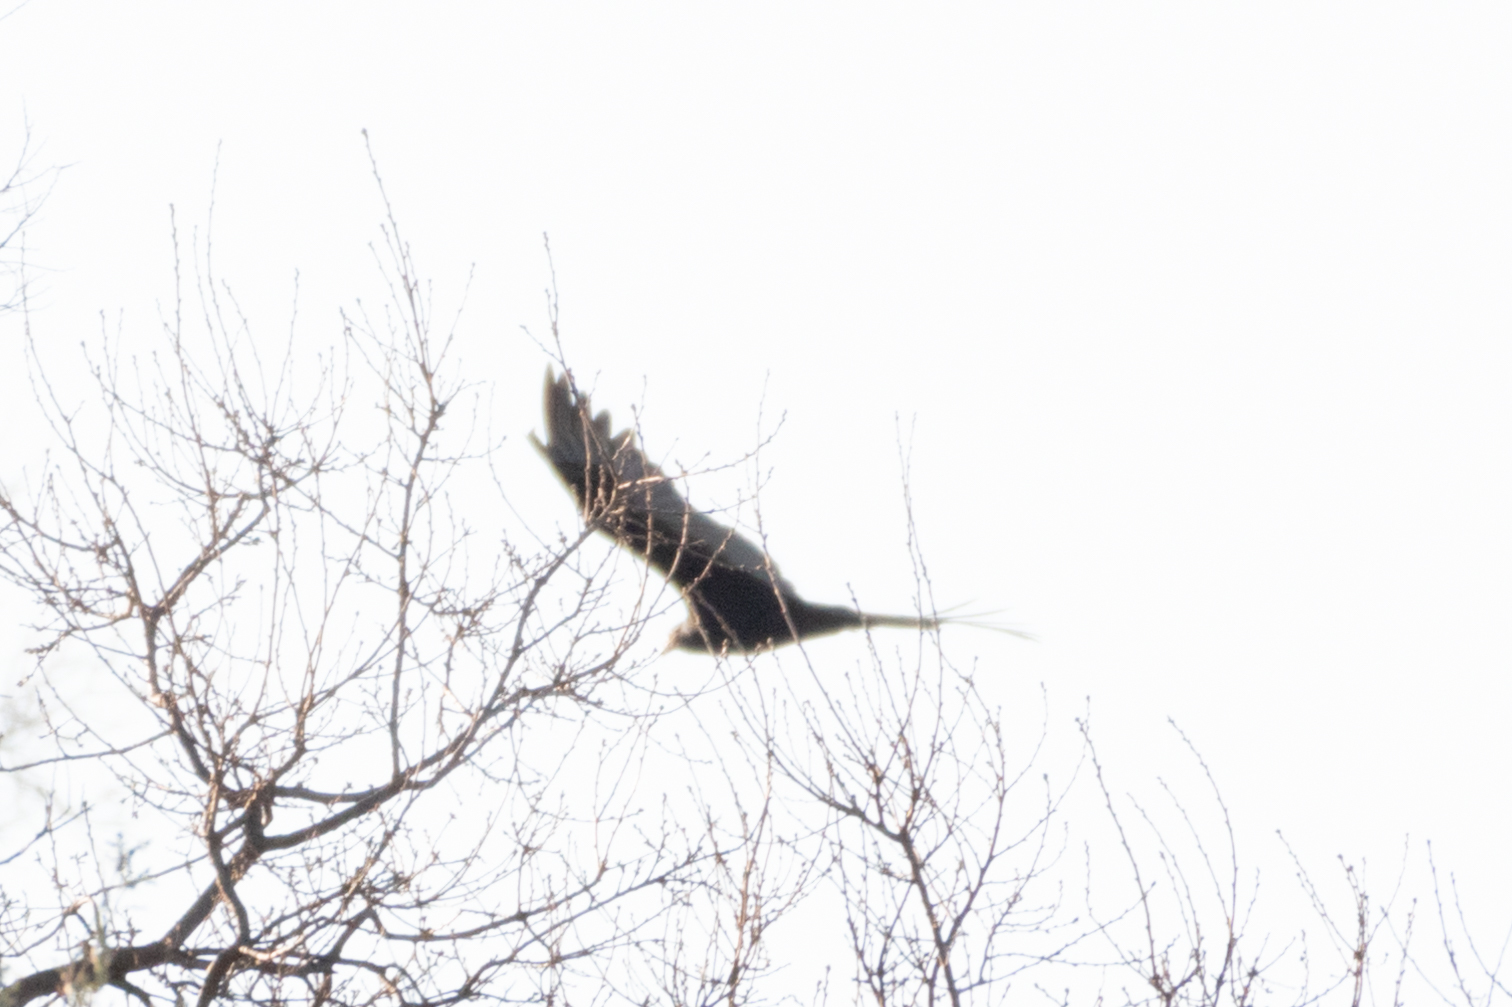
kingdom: Animalia
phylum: Chordata
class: Aves
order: Accipitriformes
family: Cathartidae
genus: Cathartes
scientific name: Cathartes aura
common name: Turkey vulture
